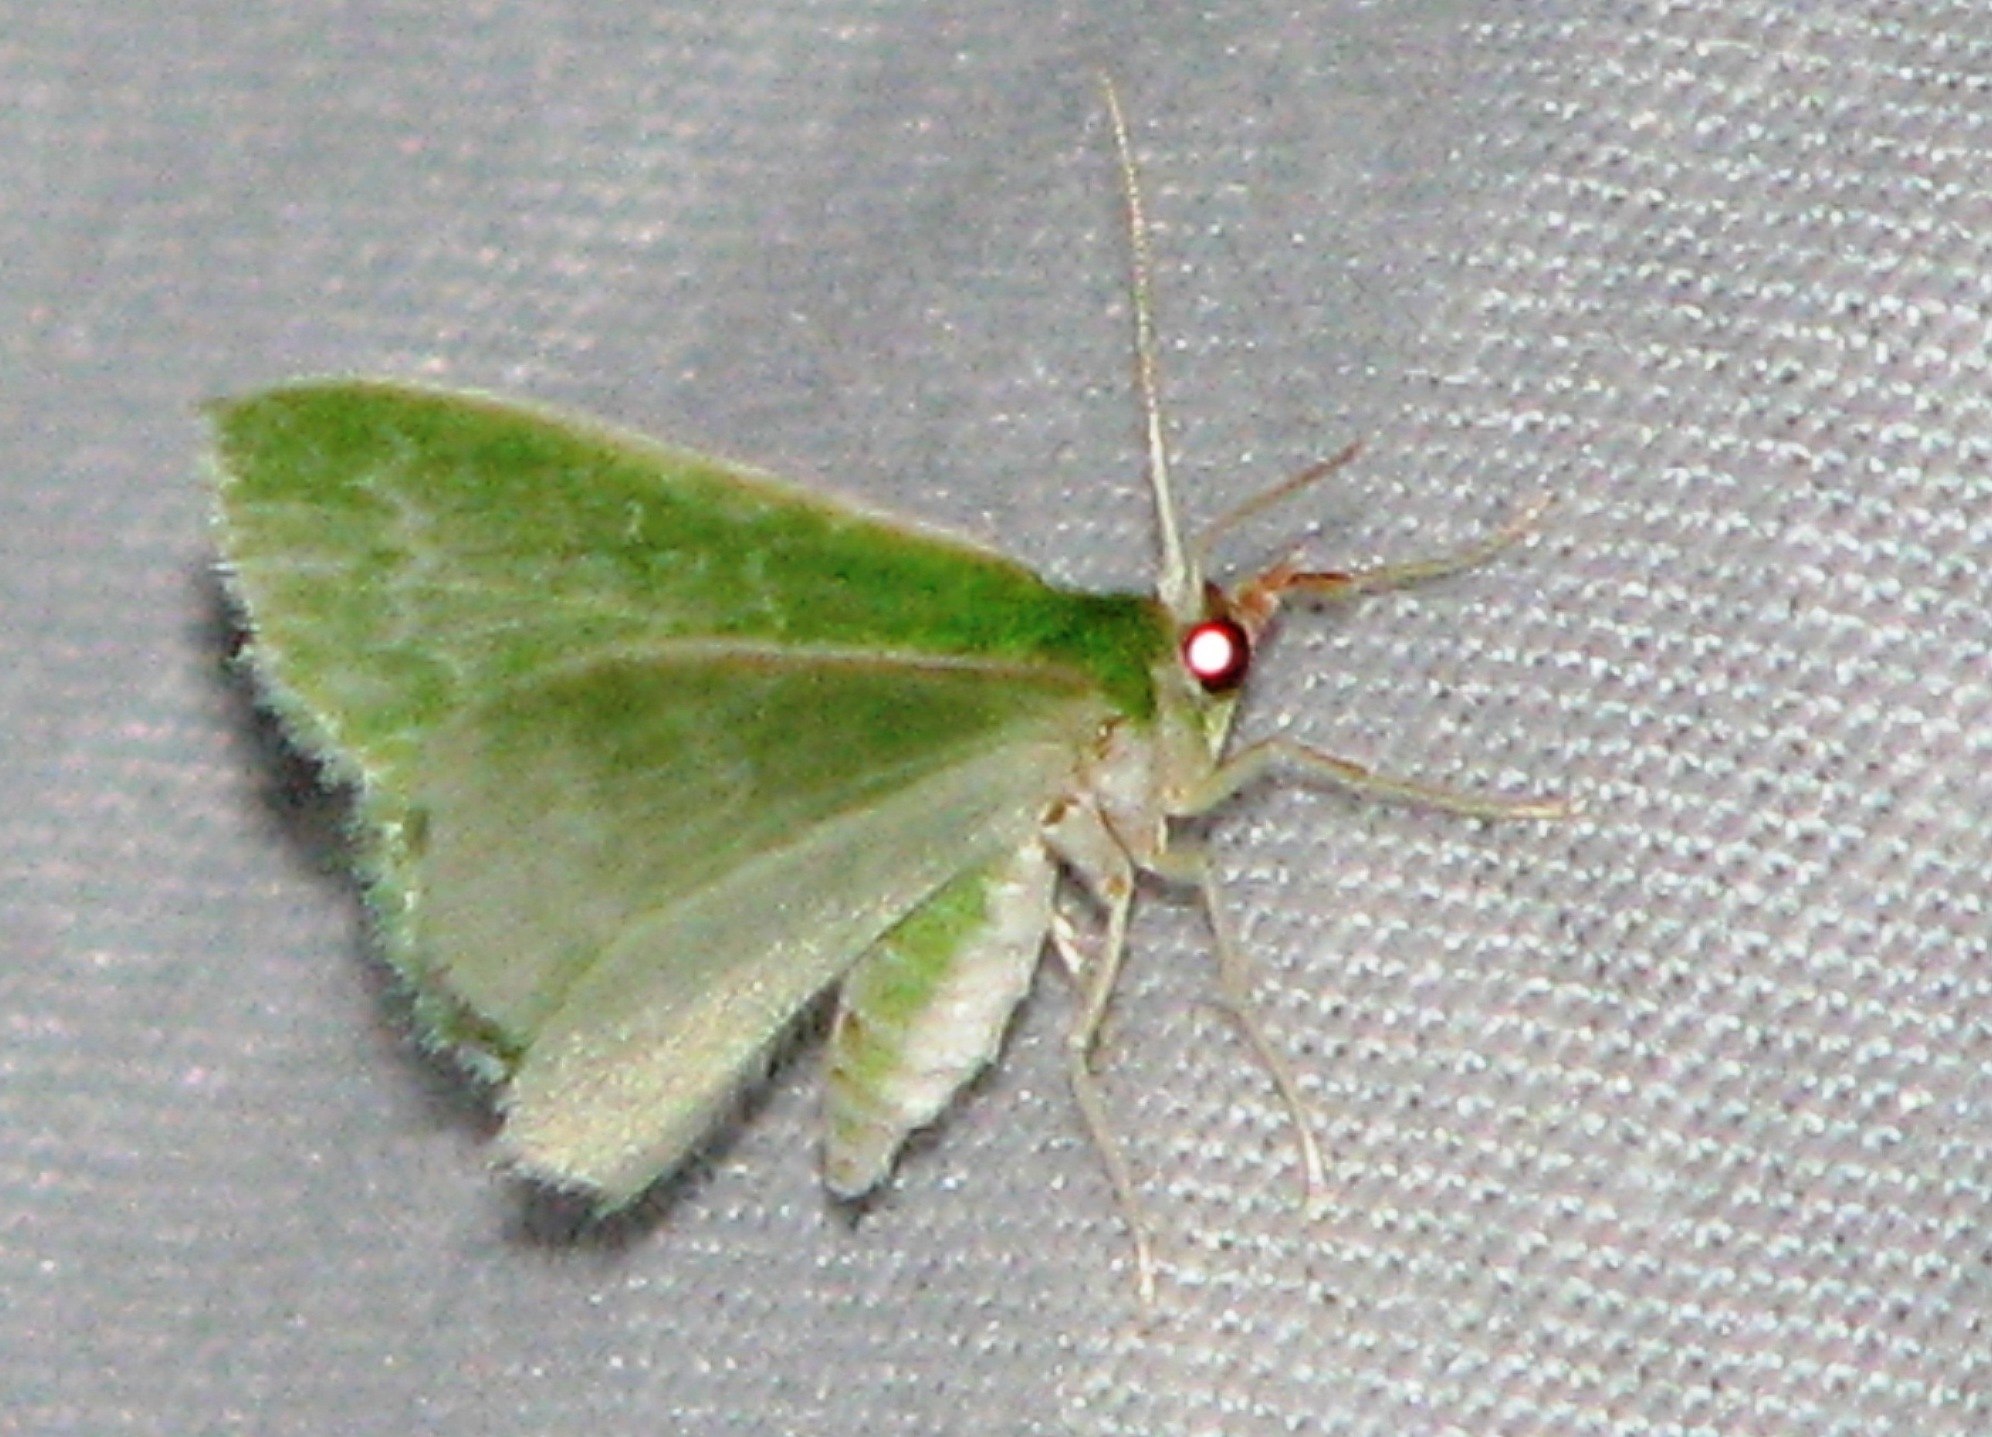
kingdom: Animalia
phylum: Arthropoda
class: Insecta
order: Lepidoptera
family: Geometridae
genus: Synchlora
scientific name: Synchlora frondaria
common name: Southern emerald
